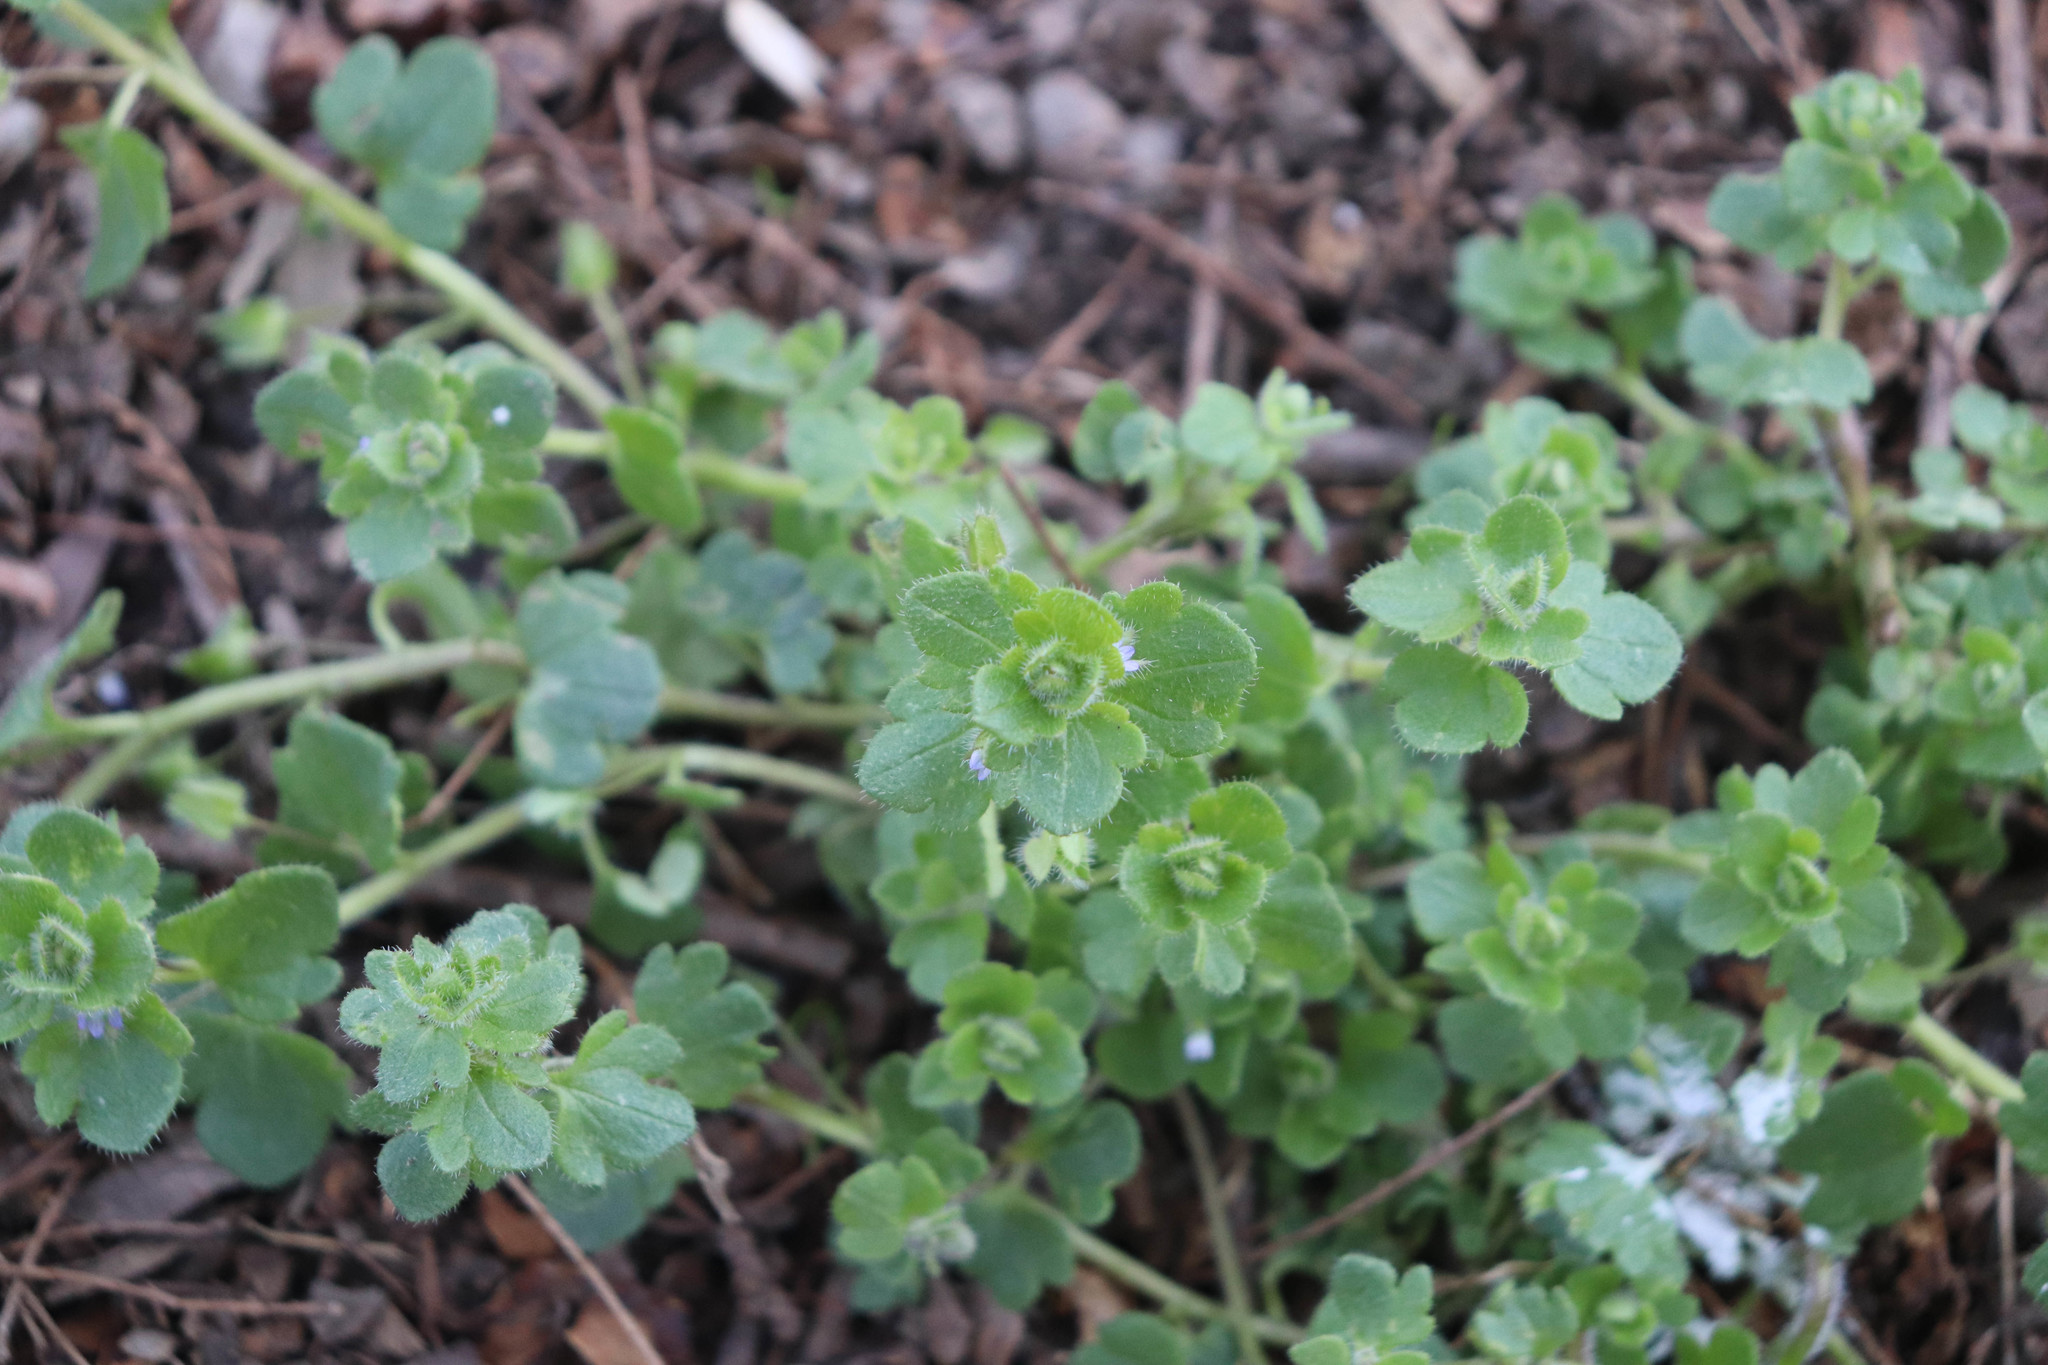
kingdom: Plantae
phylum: Tracheophyta
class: Magnoliopsida
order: Lamiales
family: Plantaginaceae
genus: Veronica
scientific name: Veronica sublobata
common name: False ivy-leaved speedwell
